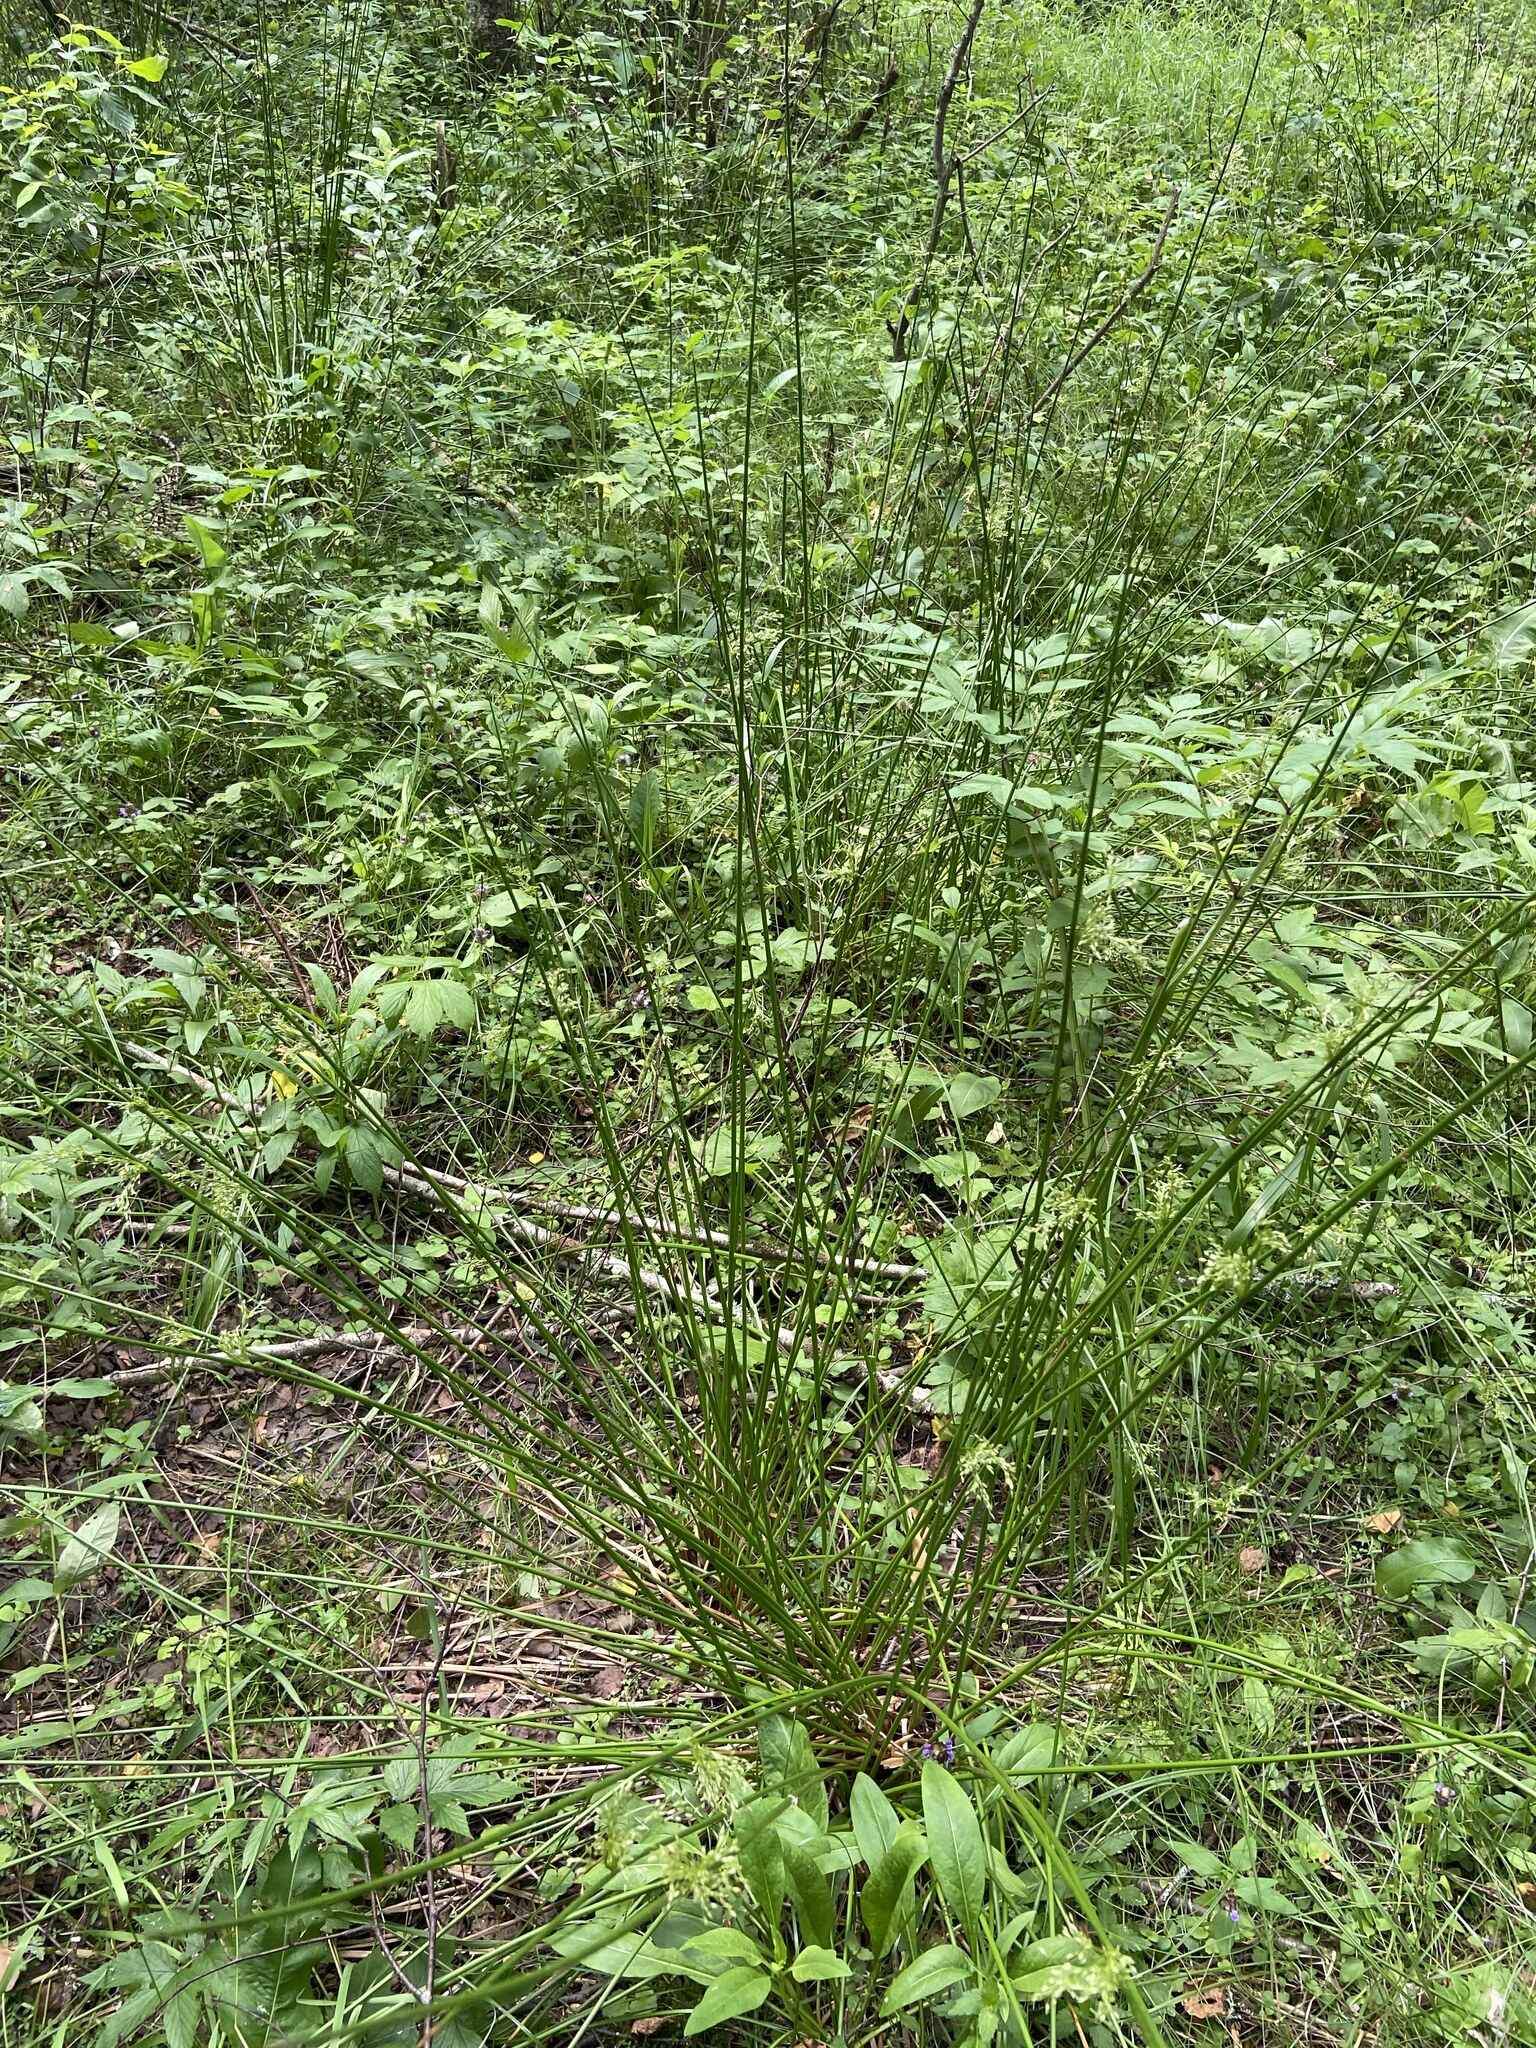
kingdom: Plantae
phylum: Tracheophyta
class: Liliopsida
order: Poales
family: Juncaceae
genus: Juncus
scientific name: Juncus effusus
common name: Soft rush
